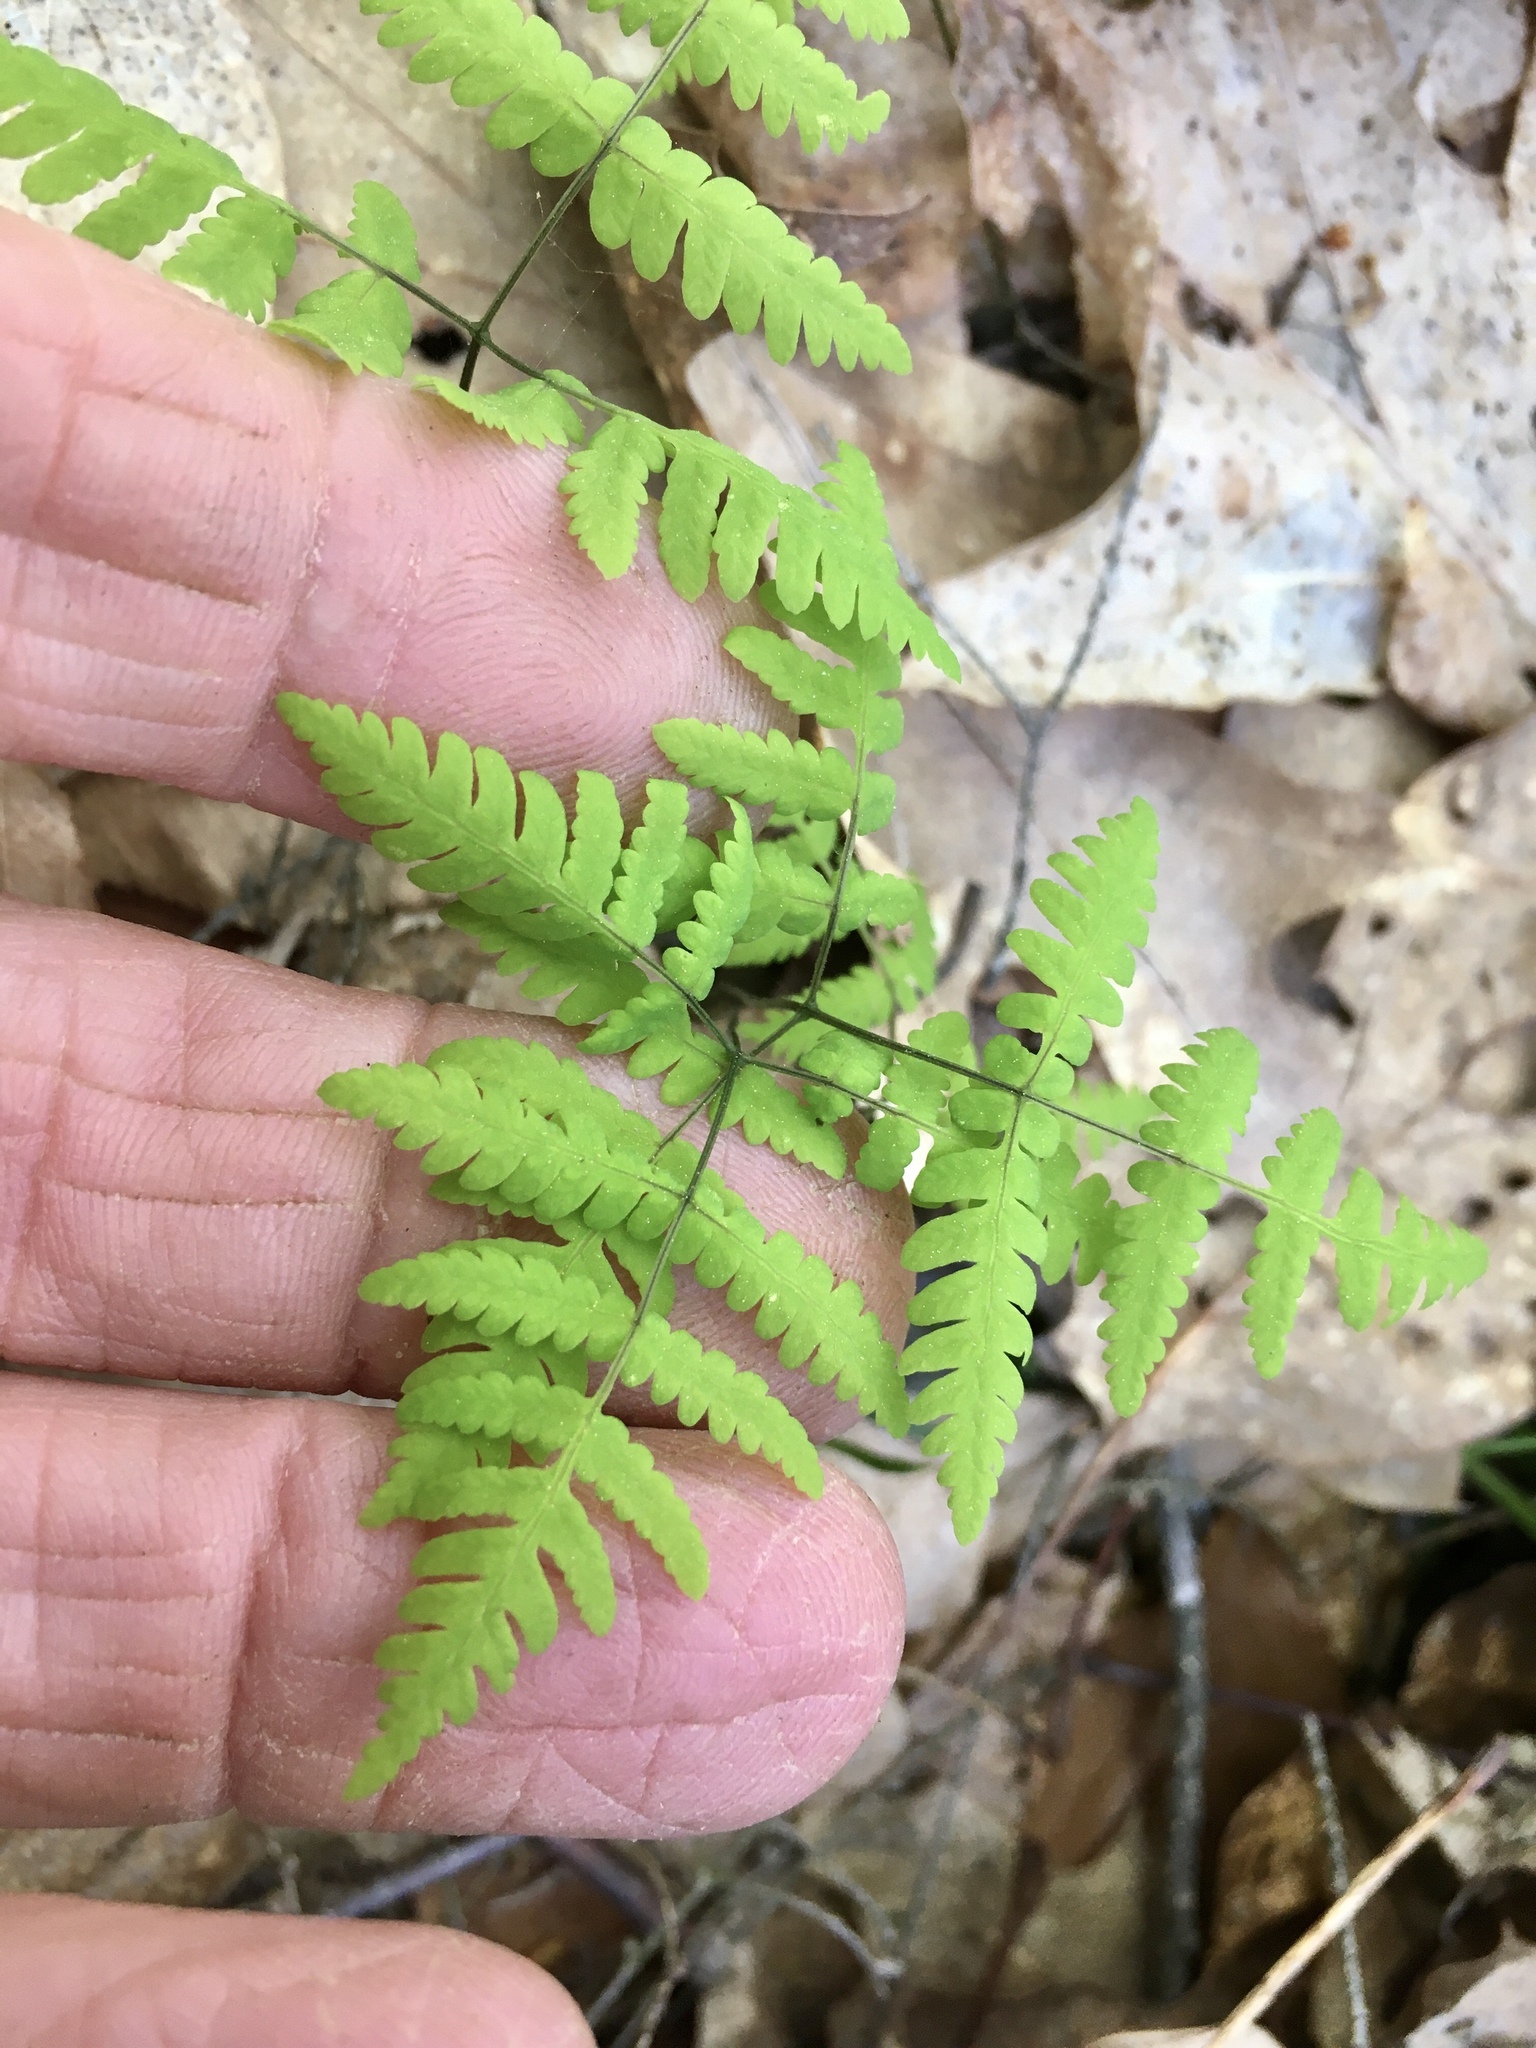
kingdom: Plantae
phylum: Tracheophyta
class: Polypodiopsida
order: Polypodiales
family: Cystopteridaceae
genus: Gymnocarpium
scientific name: Gymnocarpium dryopteris
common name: Oak fern
